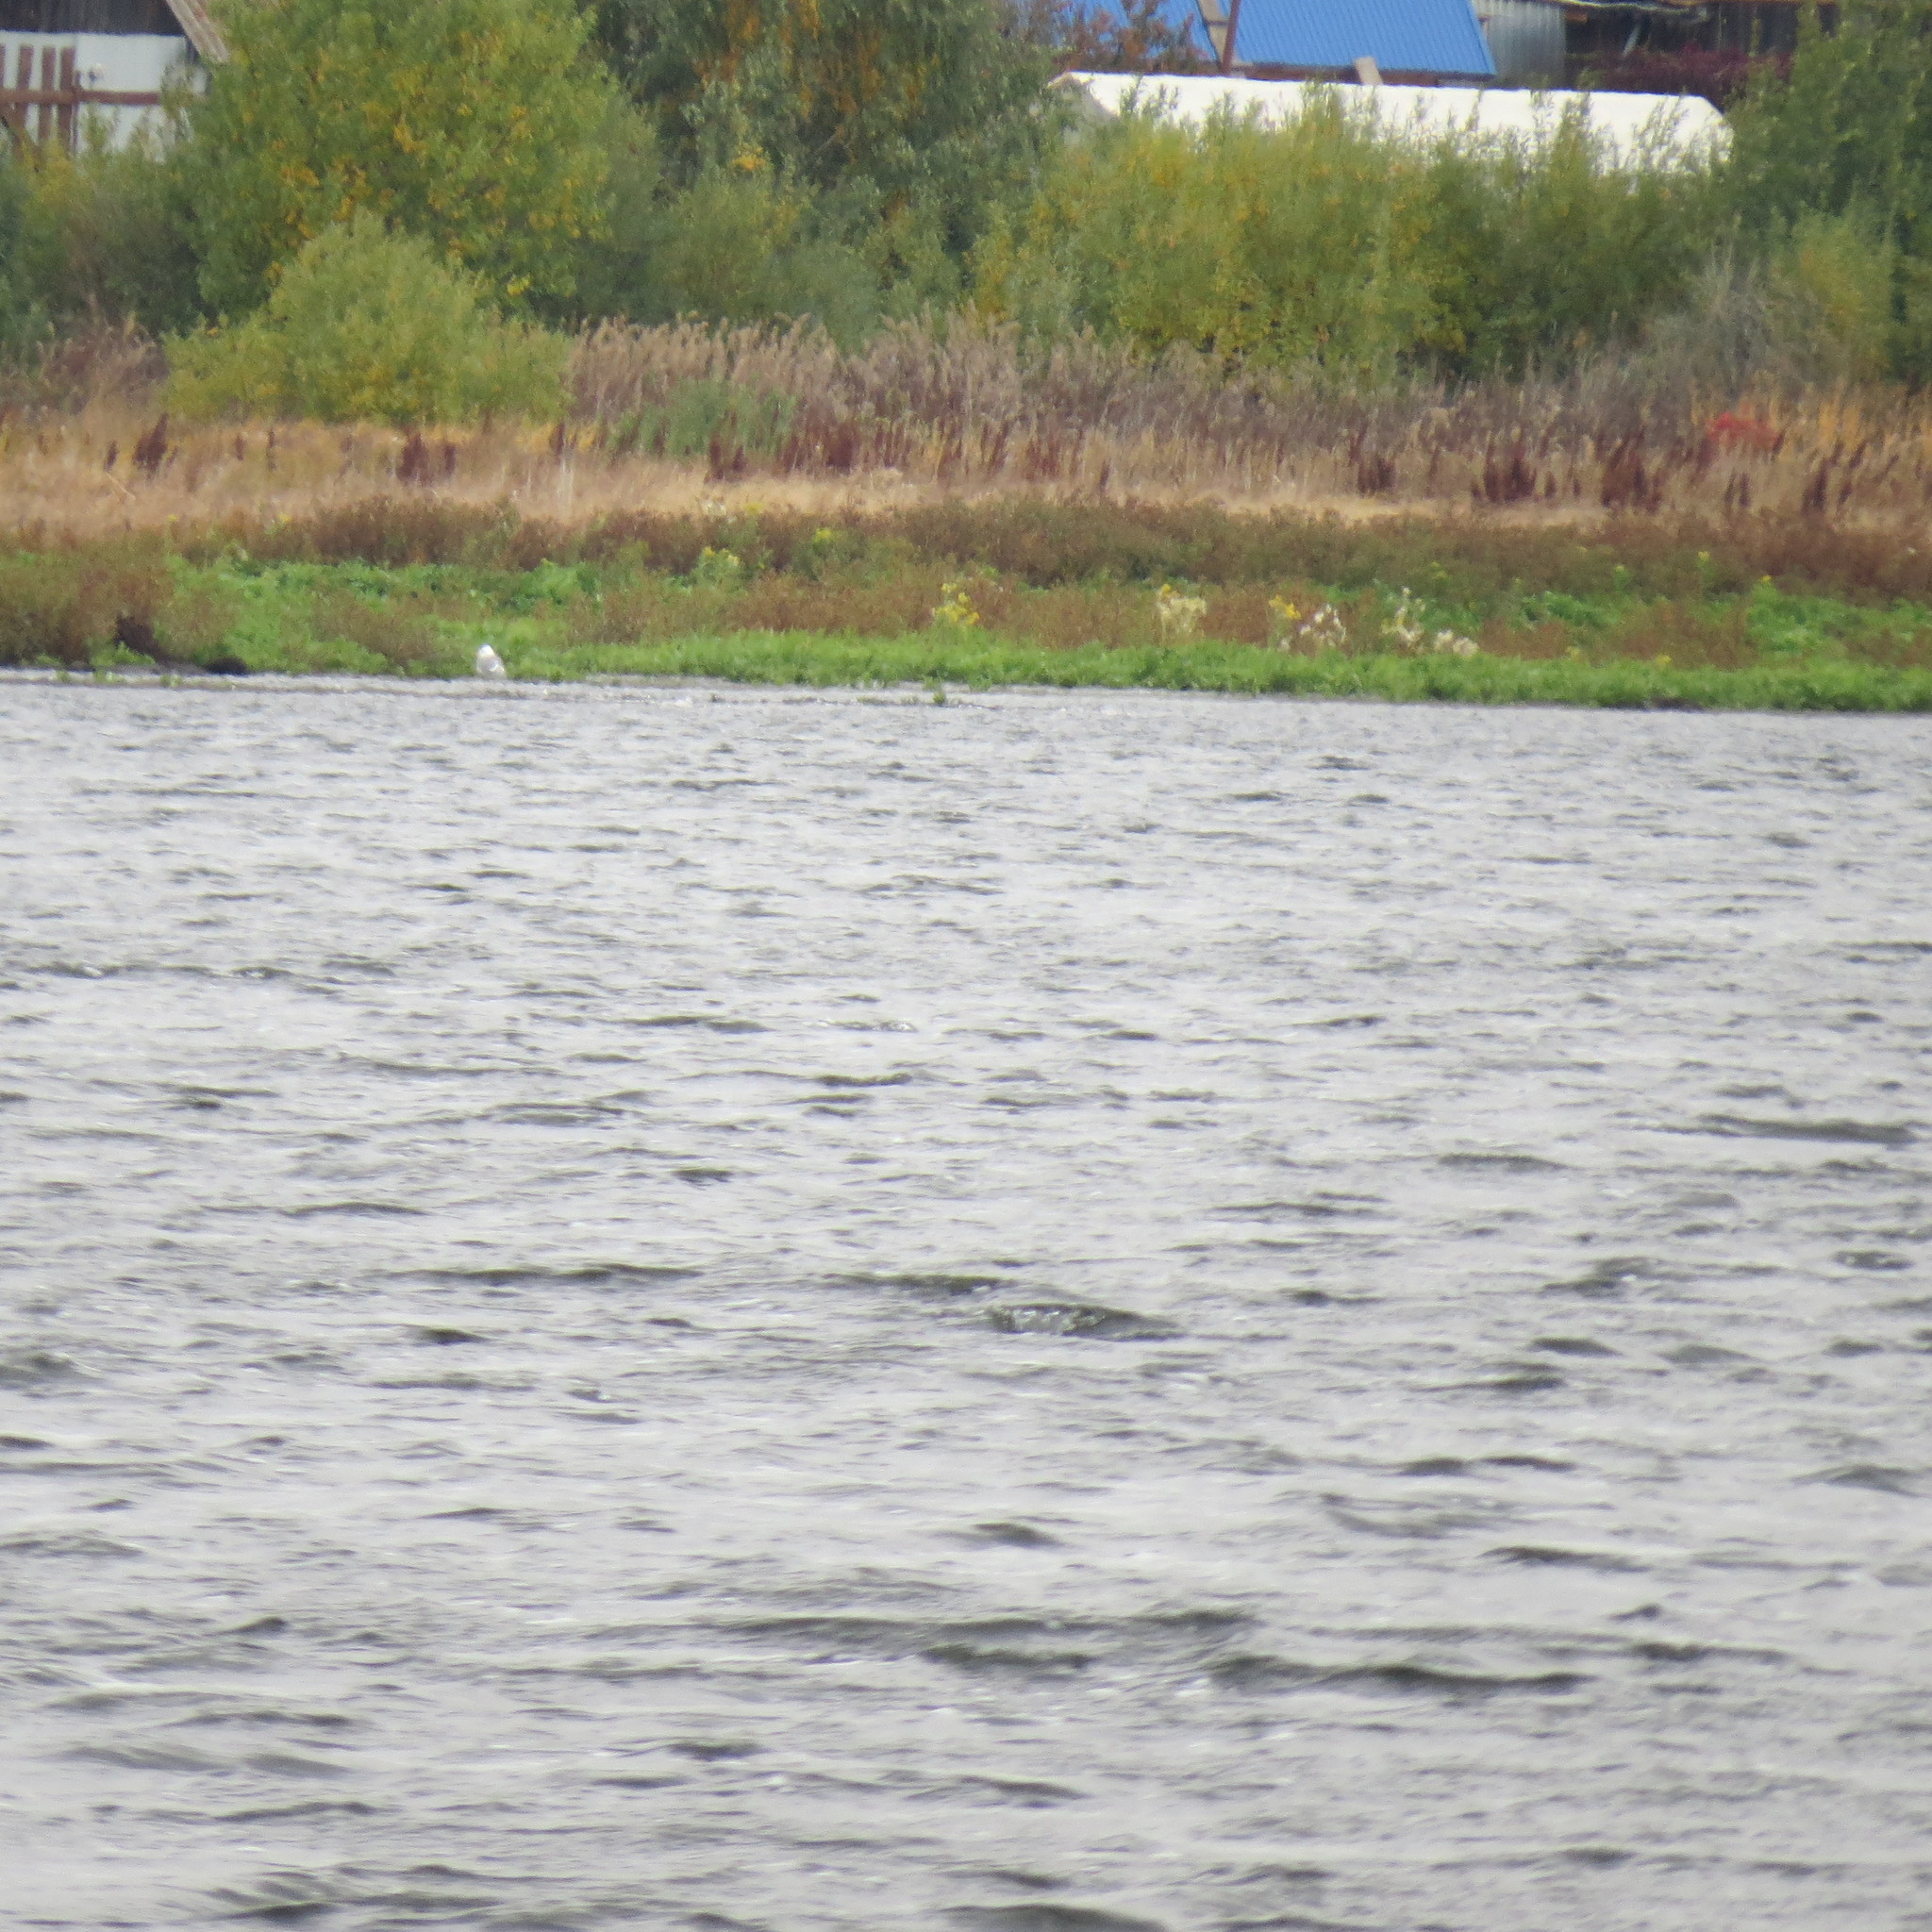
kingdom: Animalia
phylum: Chordata
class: Aves
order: Charadriiformes
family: Laridae
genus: Larus
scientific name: Larus canus
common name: Mew gull
